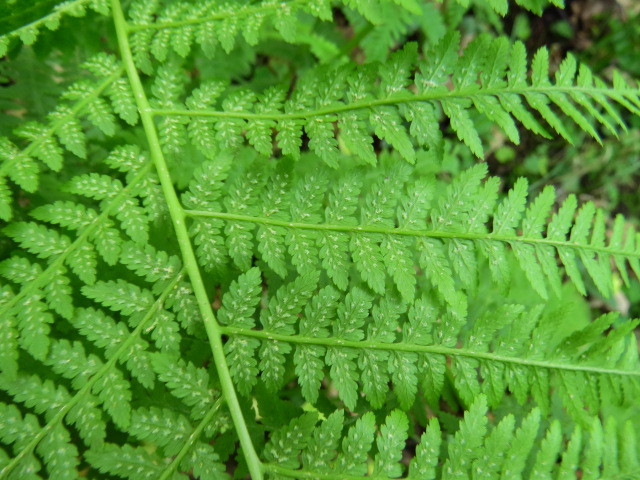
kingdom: Plantae
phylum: Tracheophyta
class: Polypodiopsida
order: Polypodiales
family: Athyriaceae
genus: Athyrium
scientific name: Athyrium filix-femina
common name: Lady fern
